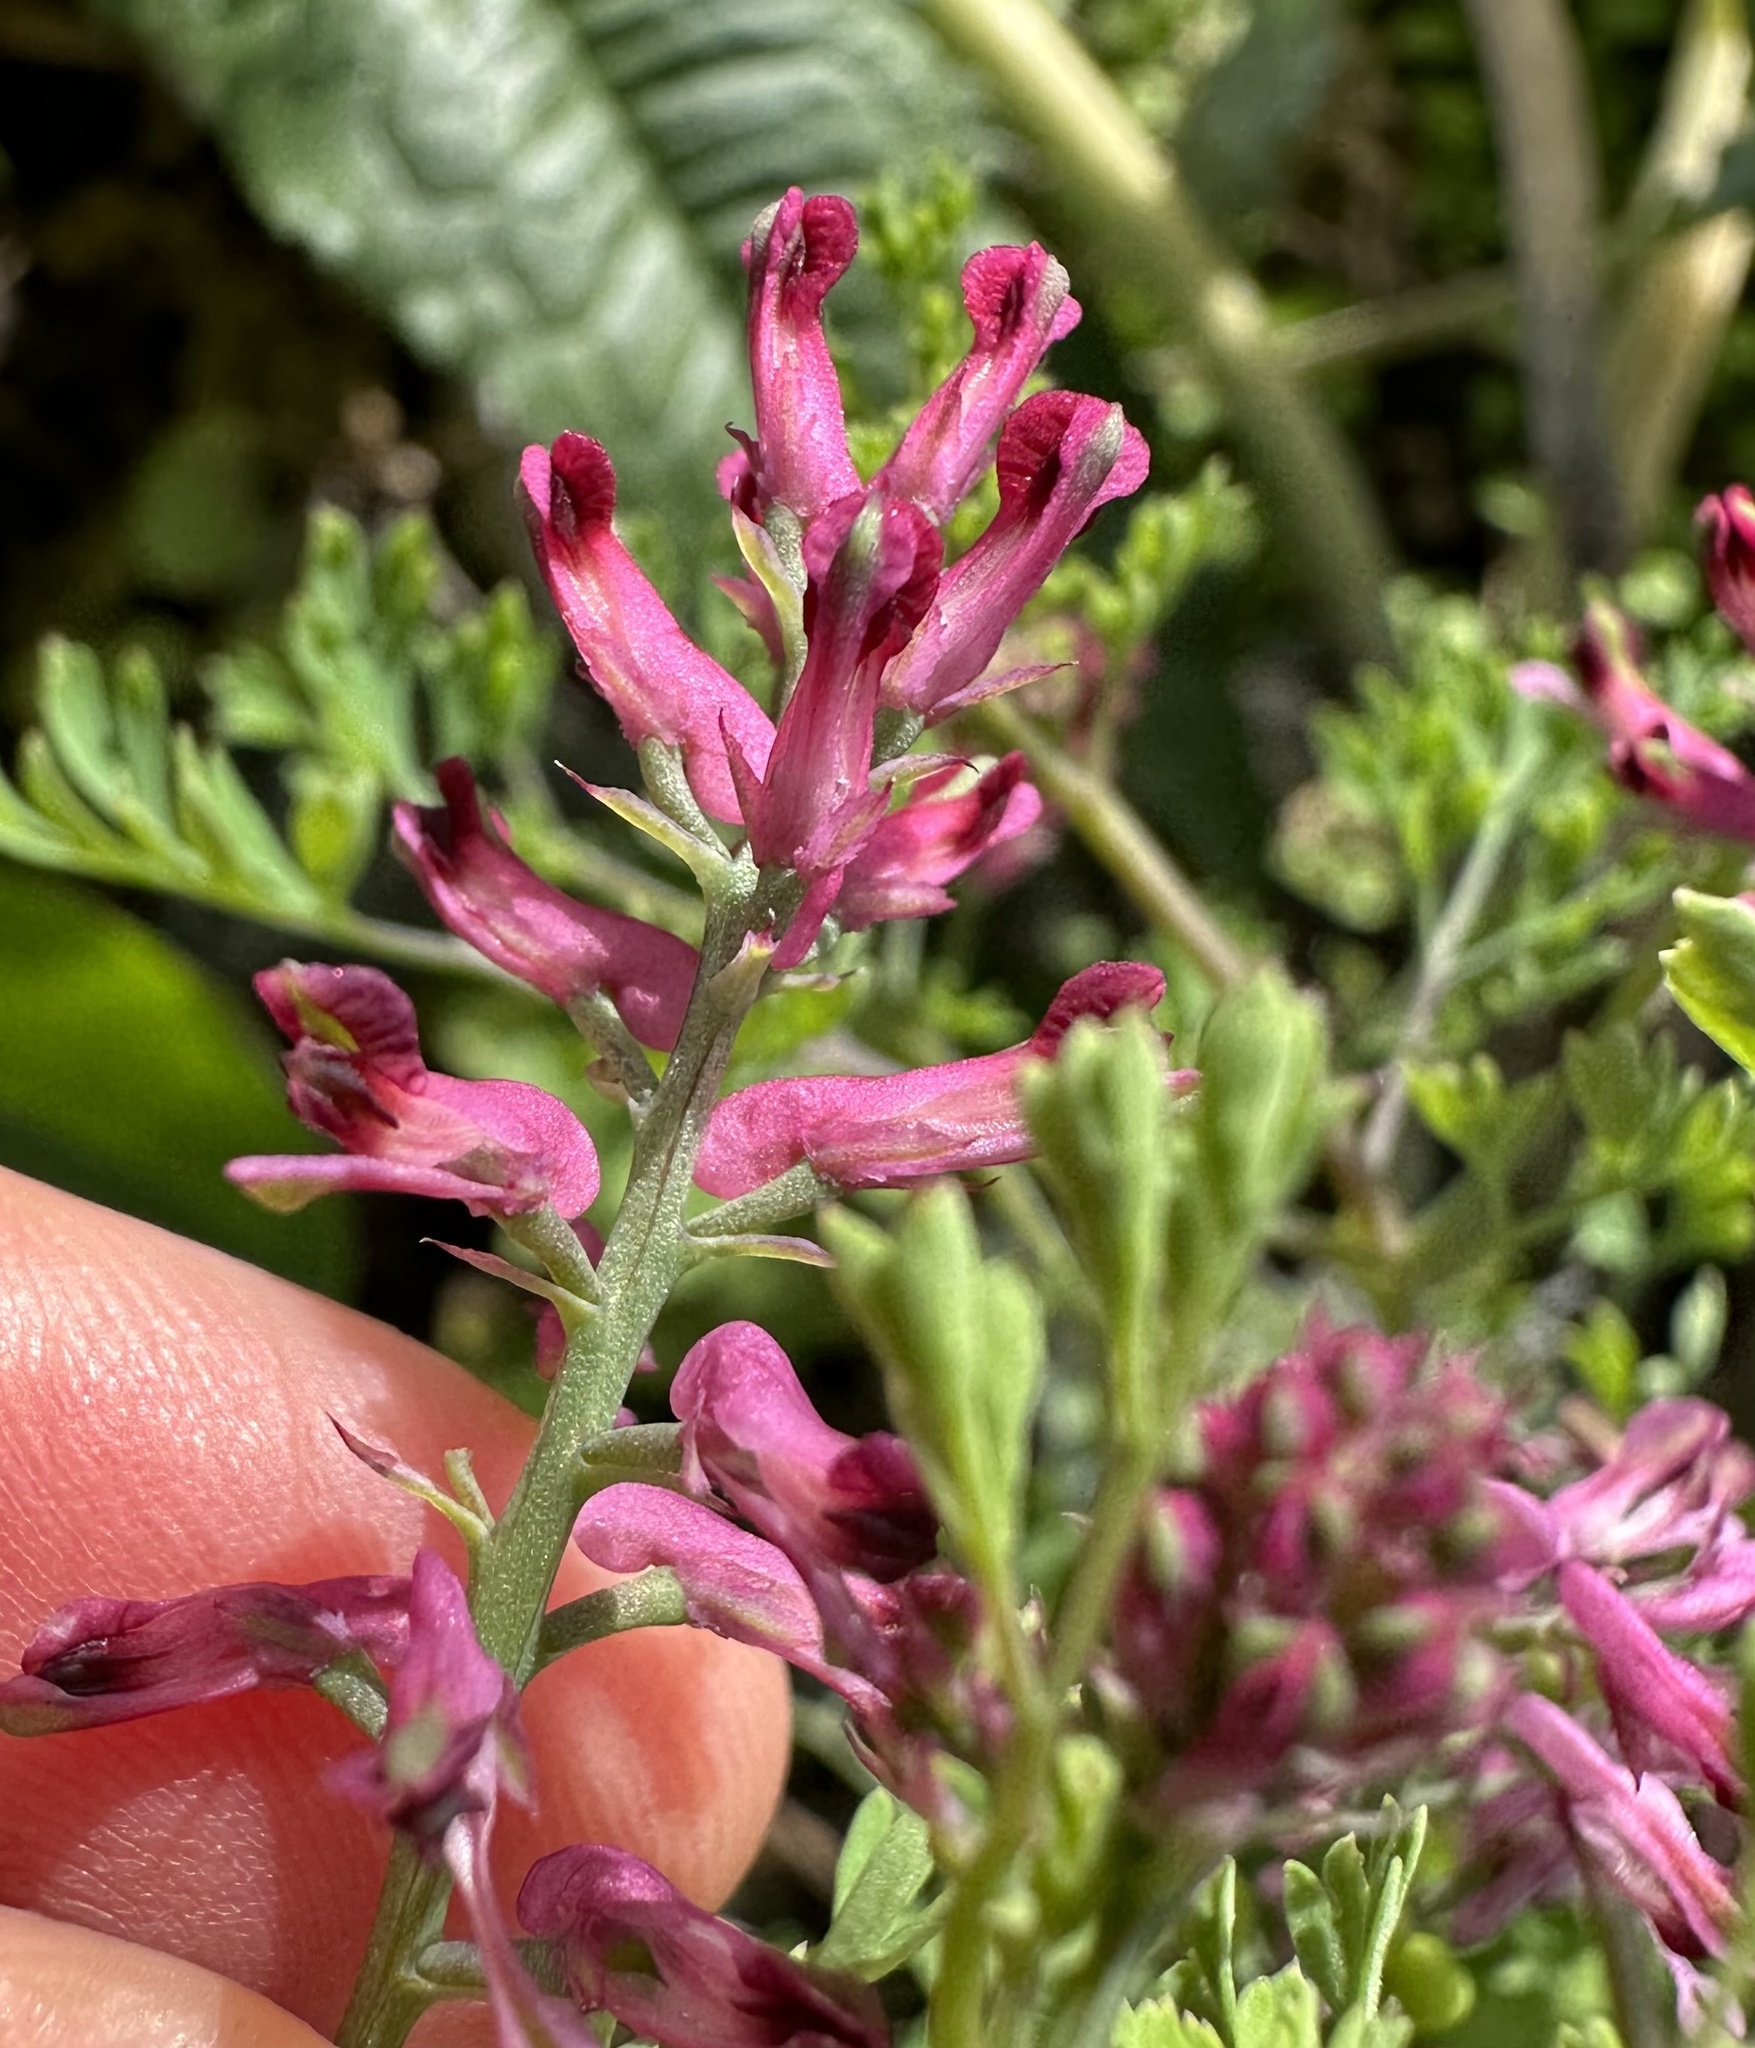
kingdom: Plantae
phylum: Tracheophyta
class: Magnoliopsida
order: Ranunculales
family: Papaveraceae
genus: Fumaria
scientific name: Fumaria officinalis
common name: Common fumitory
